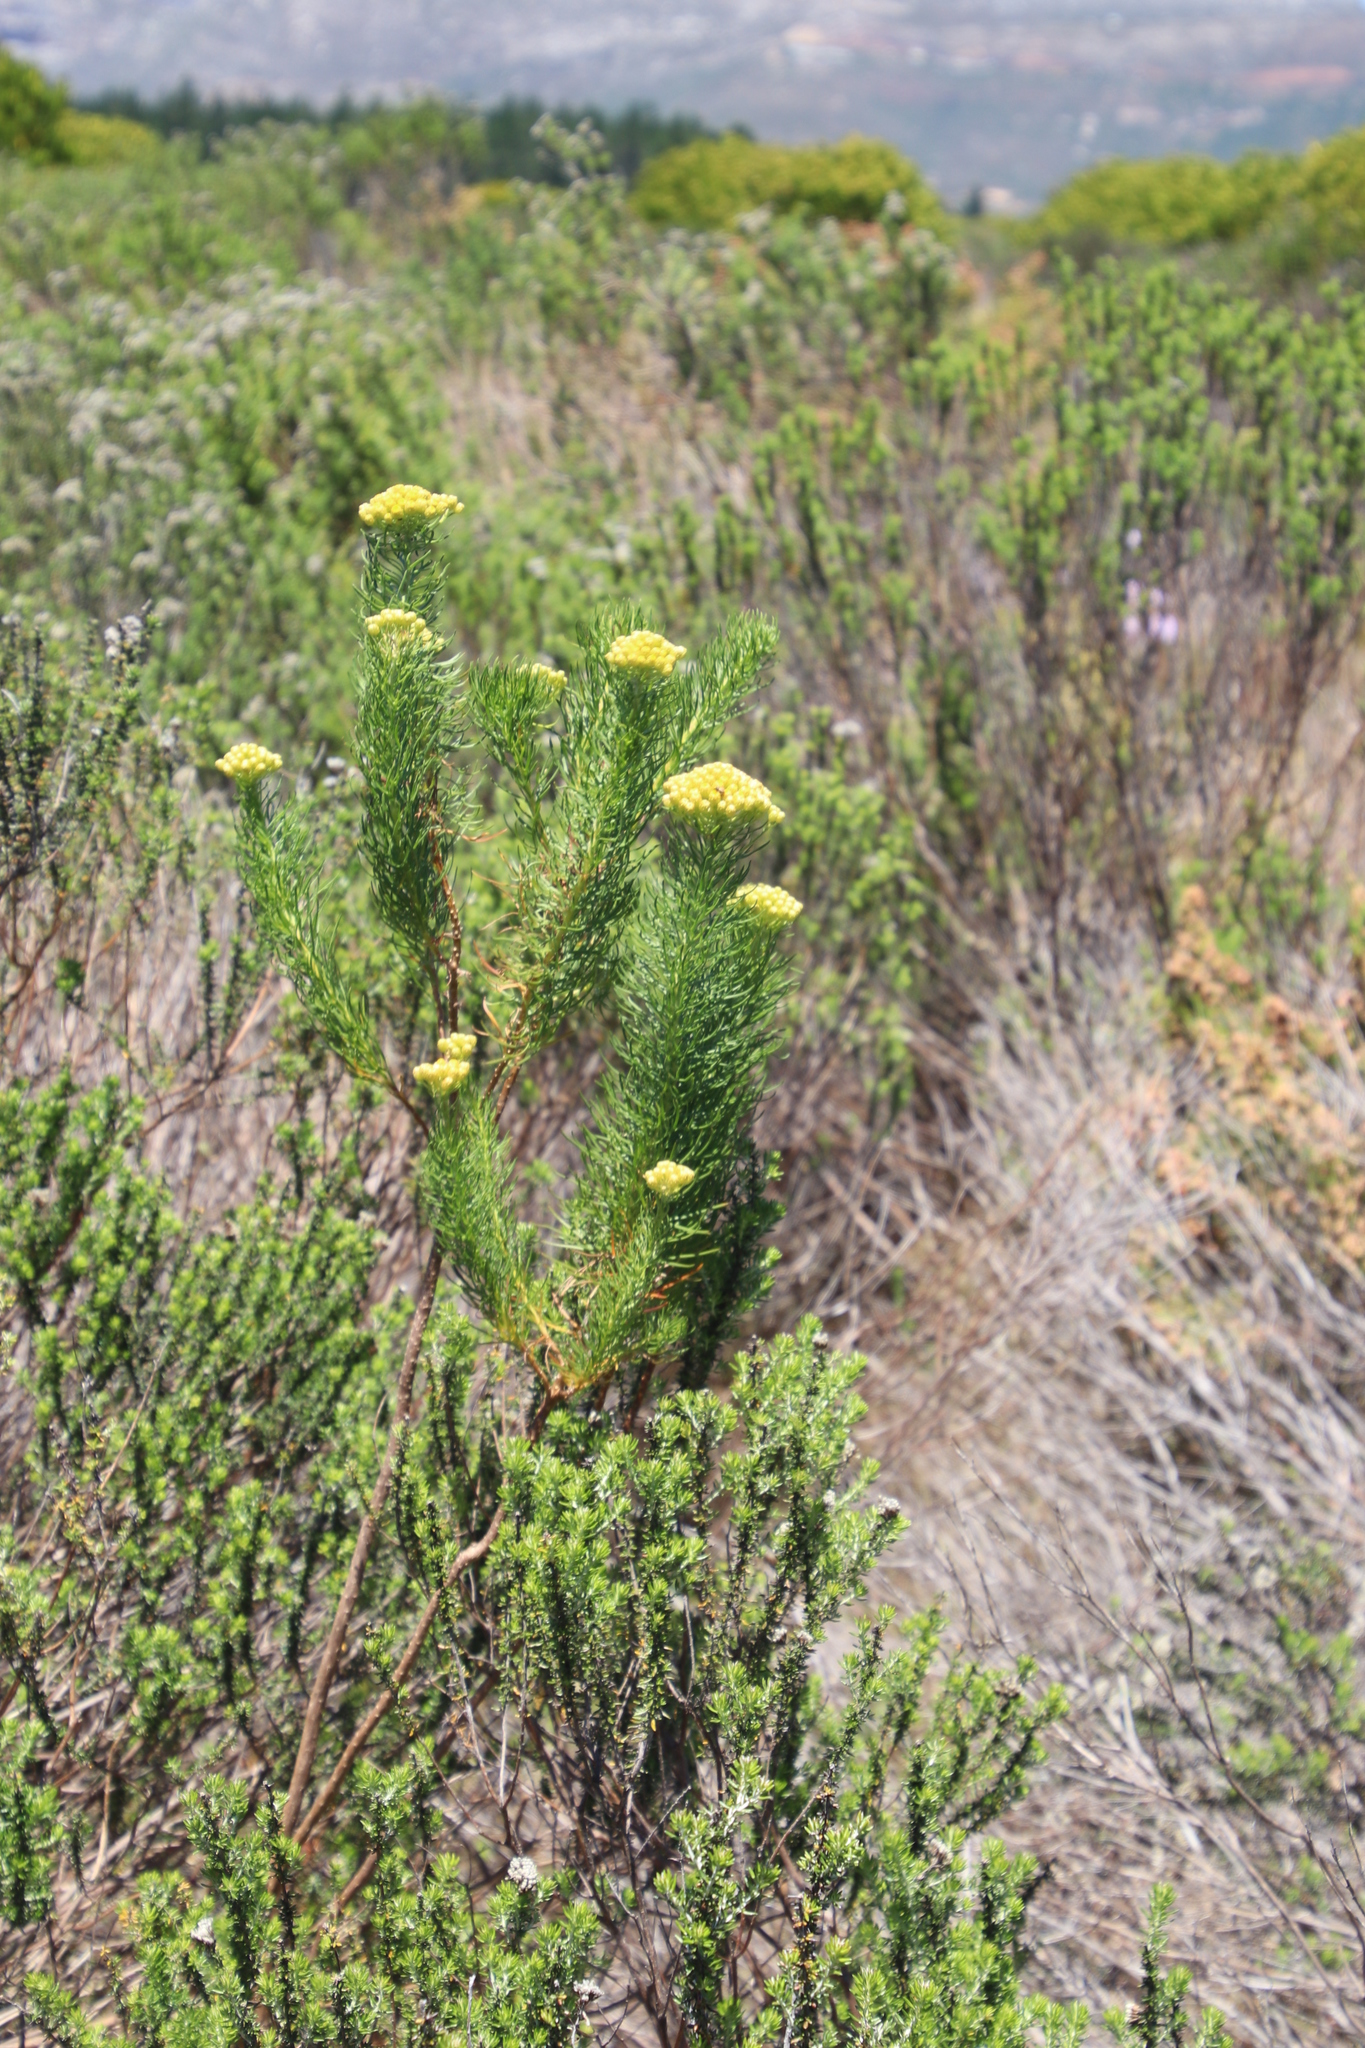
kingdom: Plantae
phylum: Tracheophyta
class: Magnoliopsida
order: Asterales
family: Asteraceae
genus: Athanasia
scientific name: Athanasia crithmifolia
